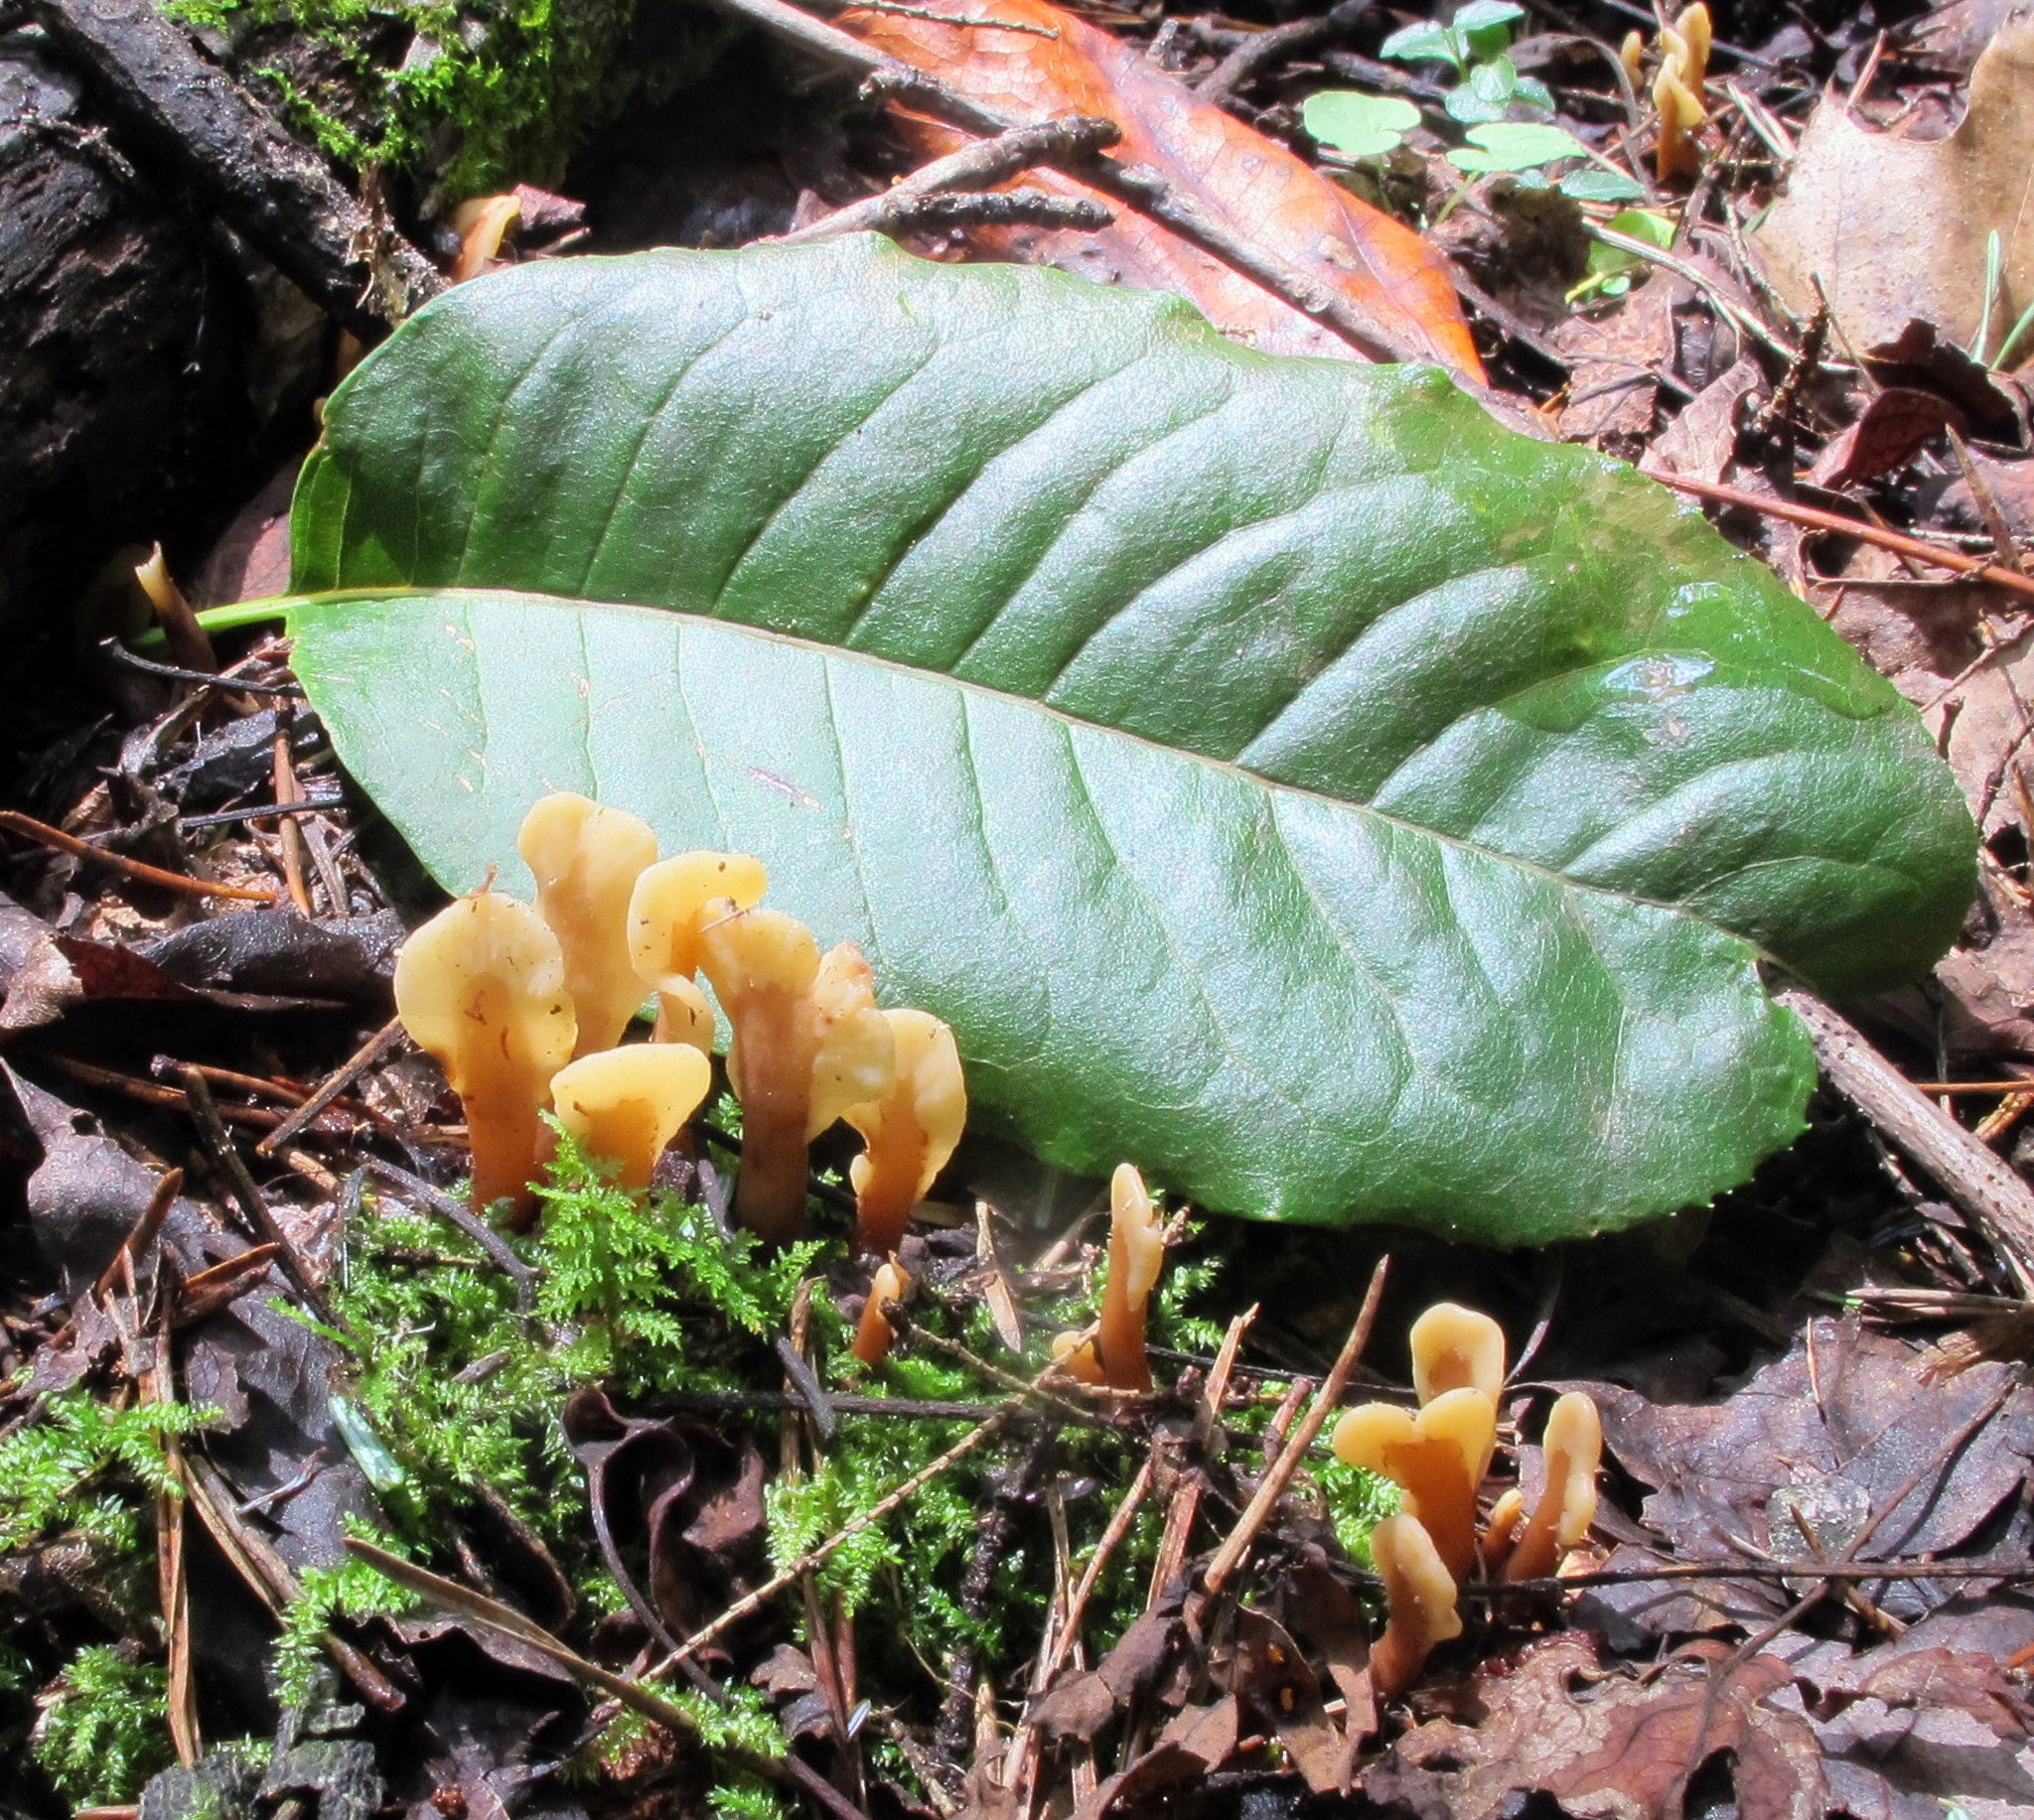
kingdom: Fungi
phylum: Ascomycota
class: Leotiomycetes
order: Rhytismatales
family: Cudoniaceae
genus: Spathulariopsis
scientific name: Spathulariopsis velutipes
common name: Velvet-foot fairy fan
